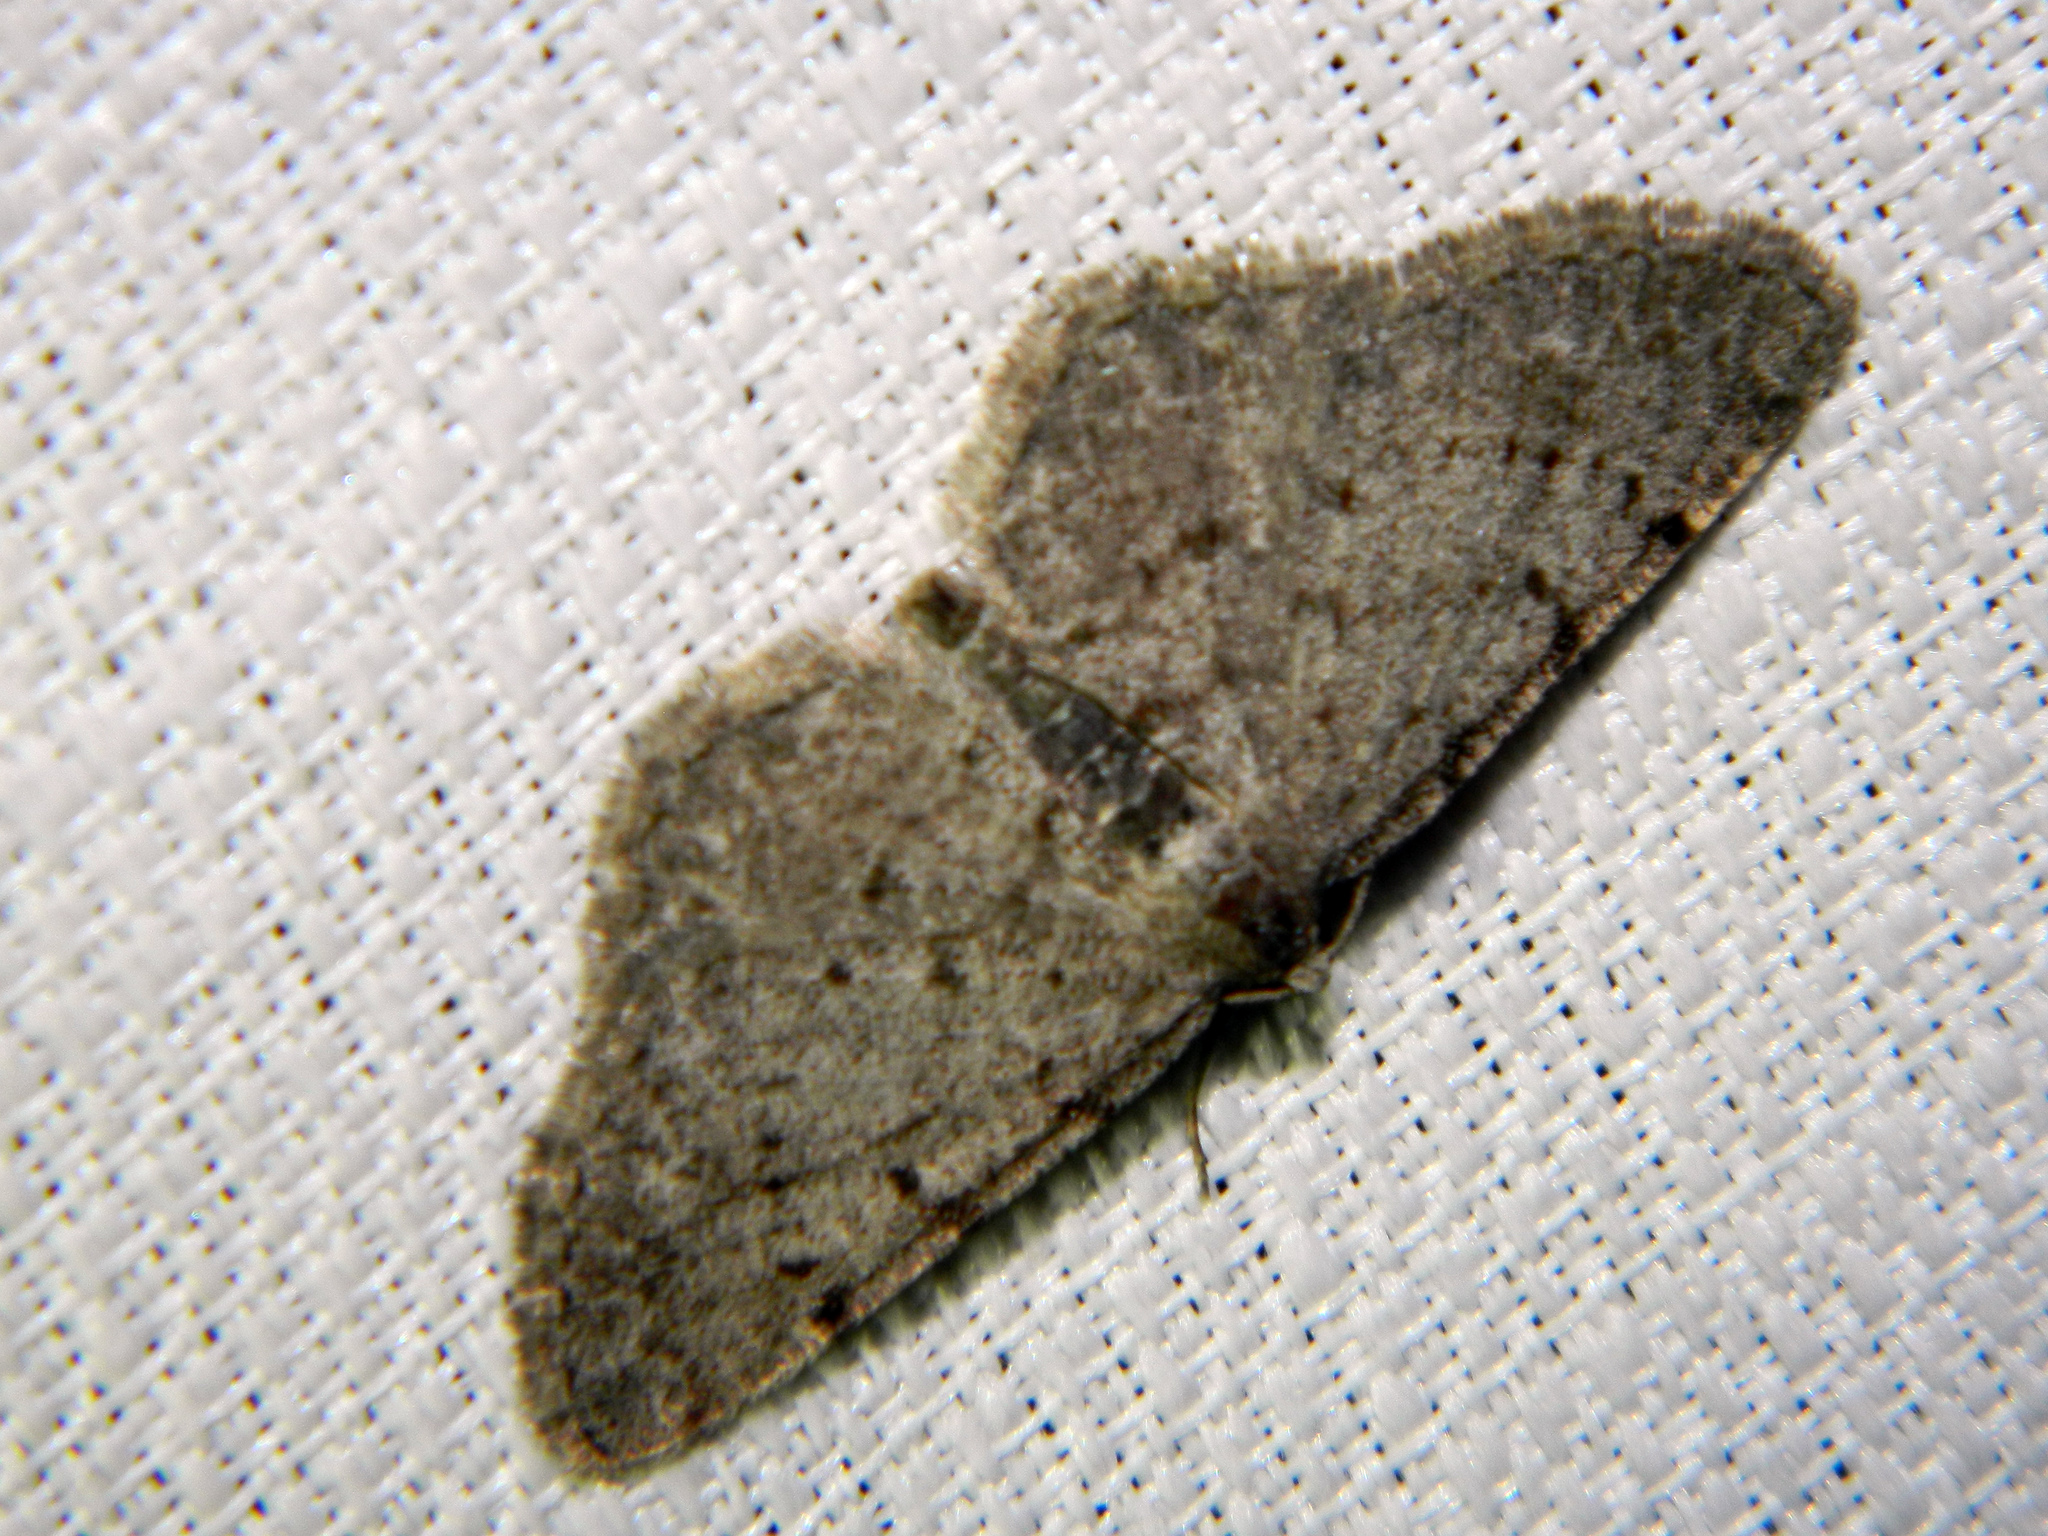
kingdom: Animalia
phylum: Arthropoda
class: Insecta
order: Lepidoptera
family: Geometridae
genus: Aethalura
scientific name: Aethalura intertexta
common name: Four-barred gray
